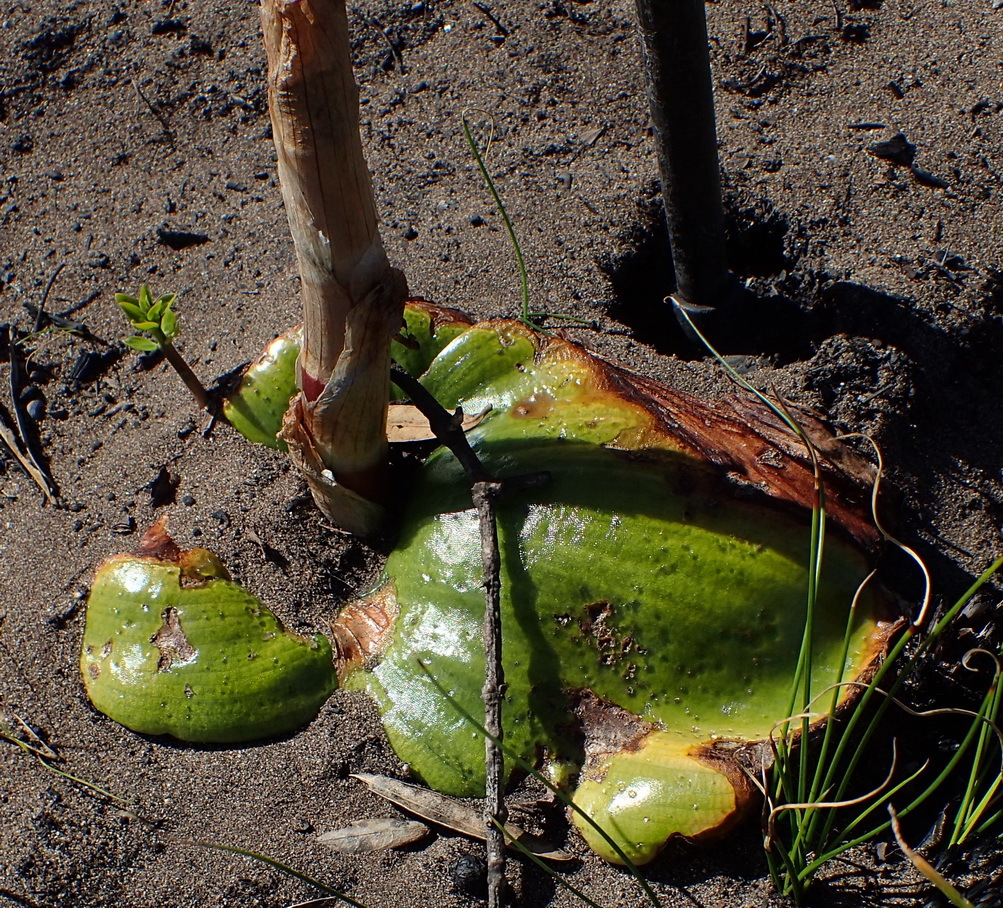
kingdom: Plantae
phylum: Tracheophyta
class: Liliopsida
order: Asparagales
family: Orchidaceae
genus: Satyrium
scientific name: Satyrium princeps
